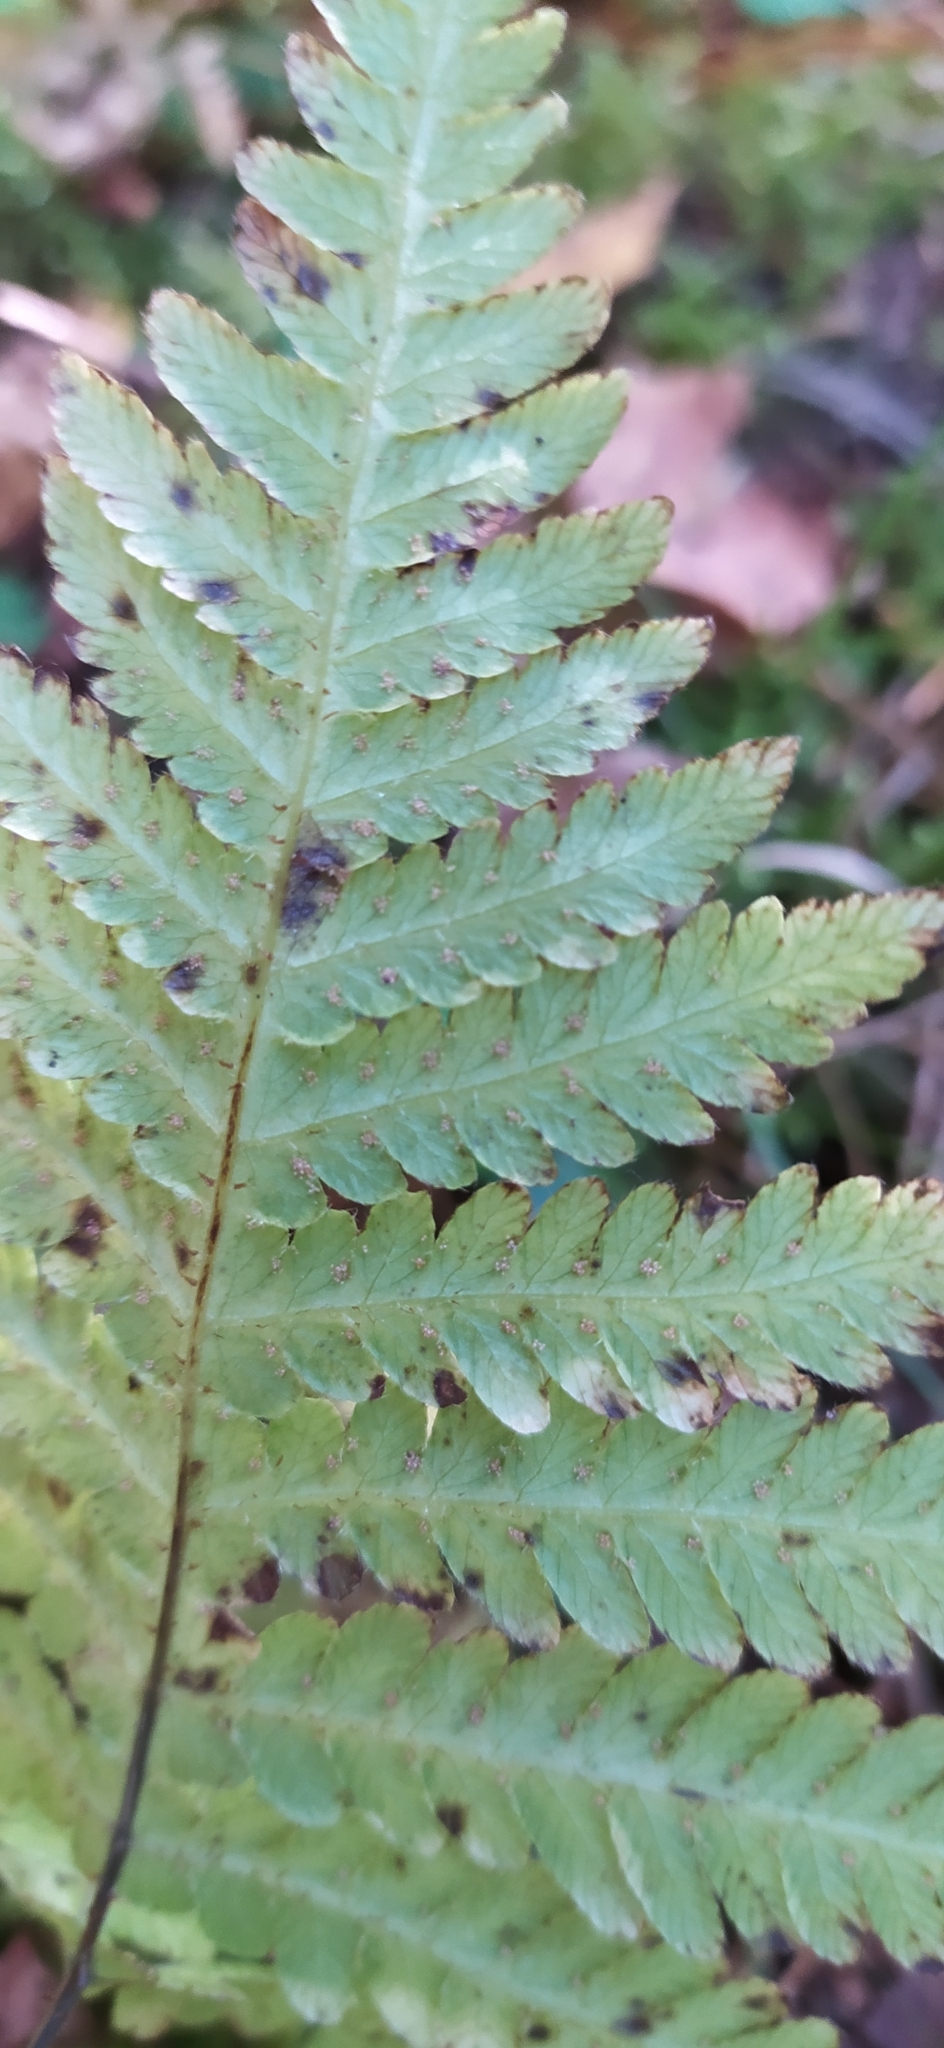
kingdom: Plantae
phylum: Tracheophyta
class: Polypodiopsida
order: Polypodiales
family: Thelypteridaceae
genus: Phegopteris
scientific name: Phegopteris connectilis
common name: Beech fern
